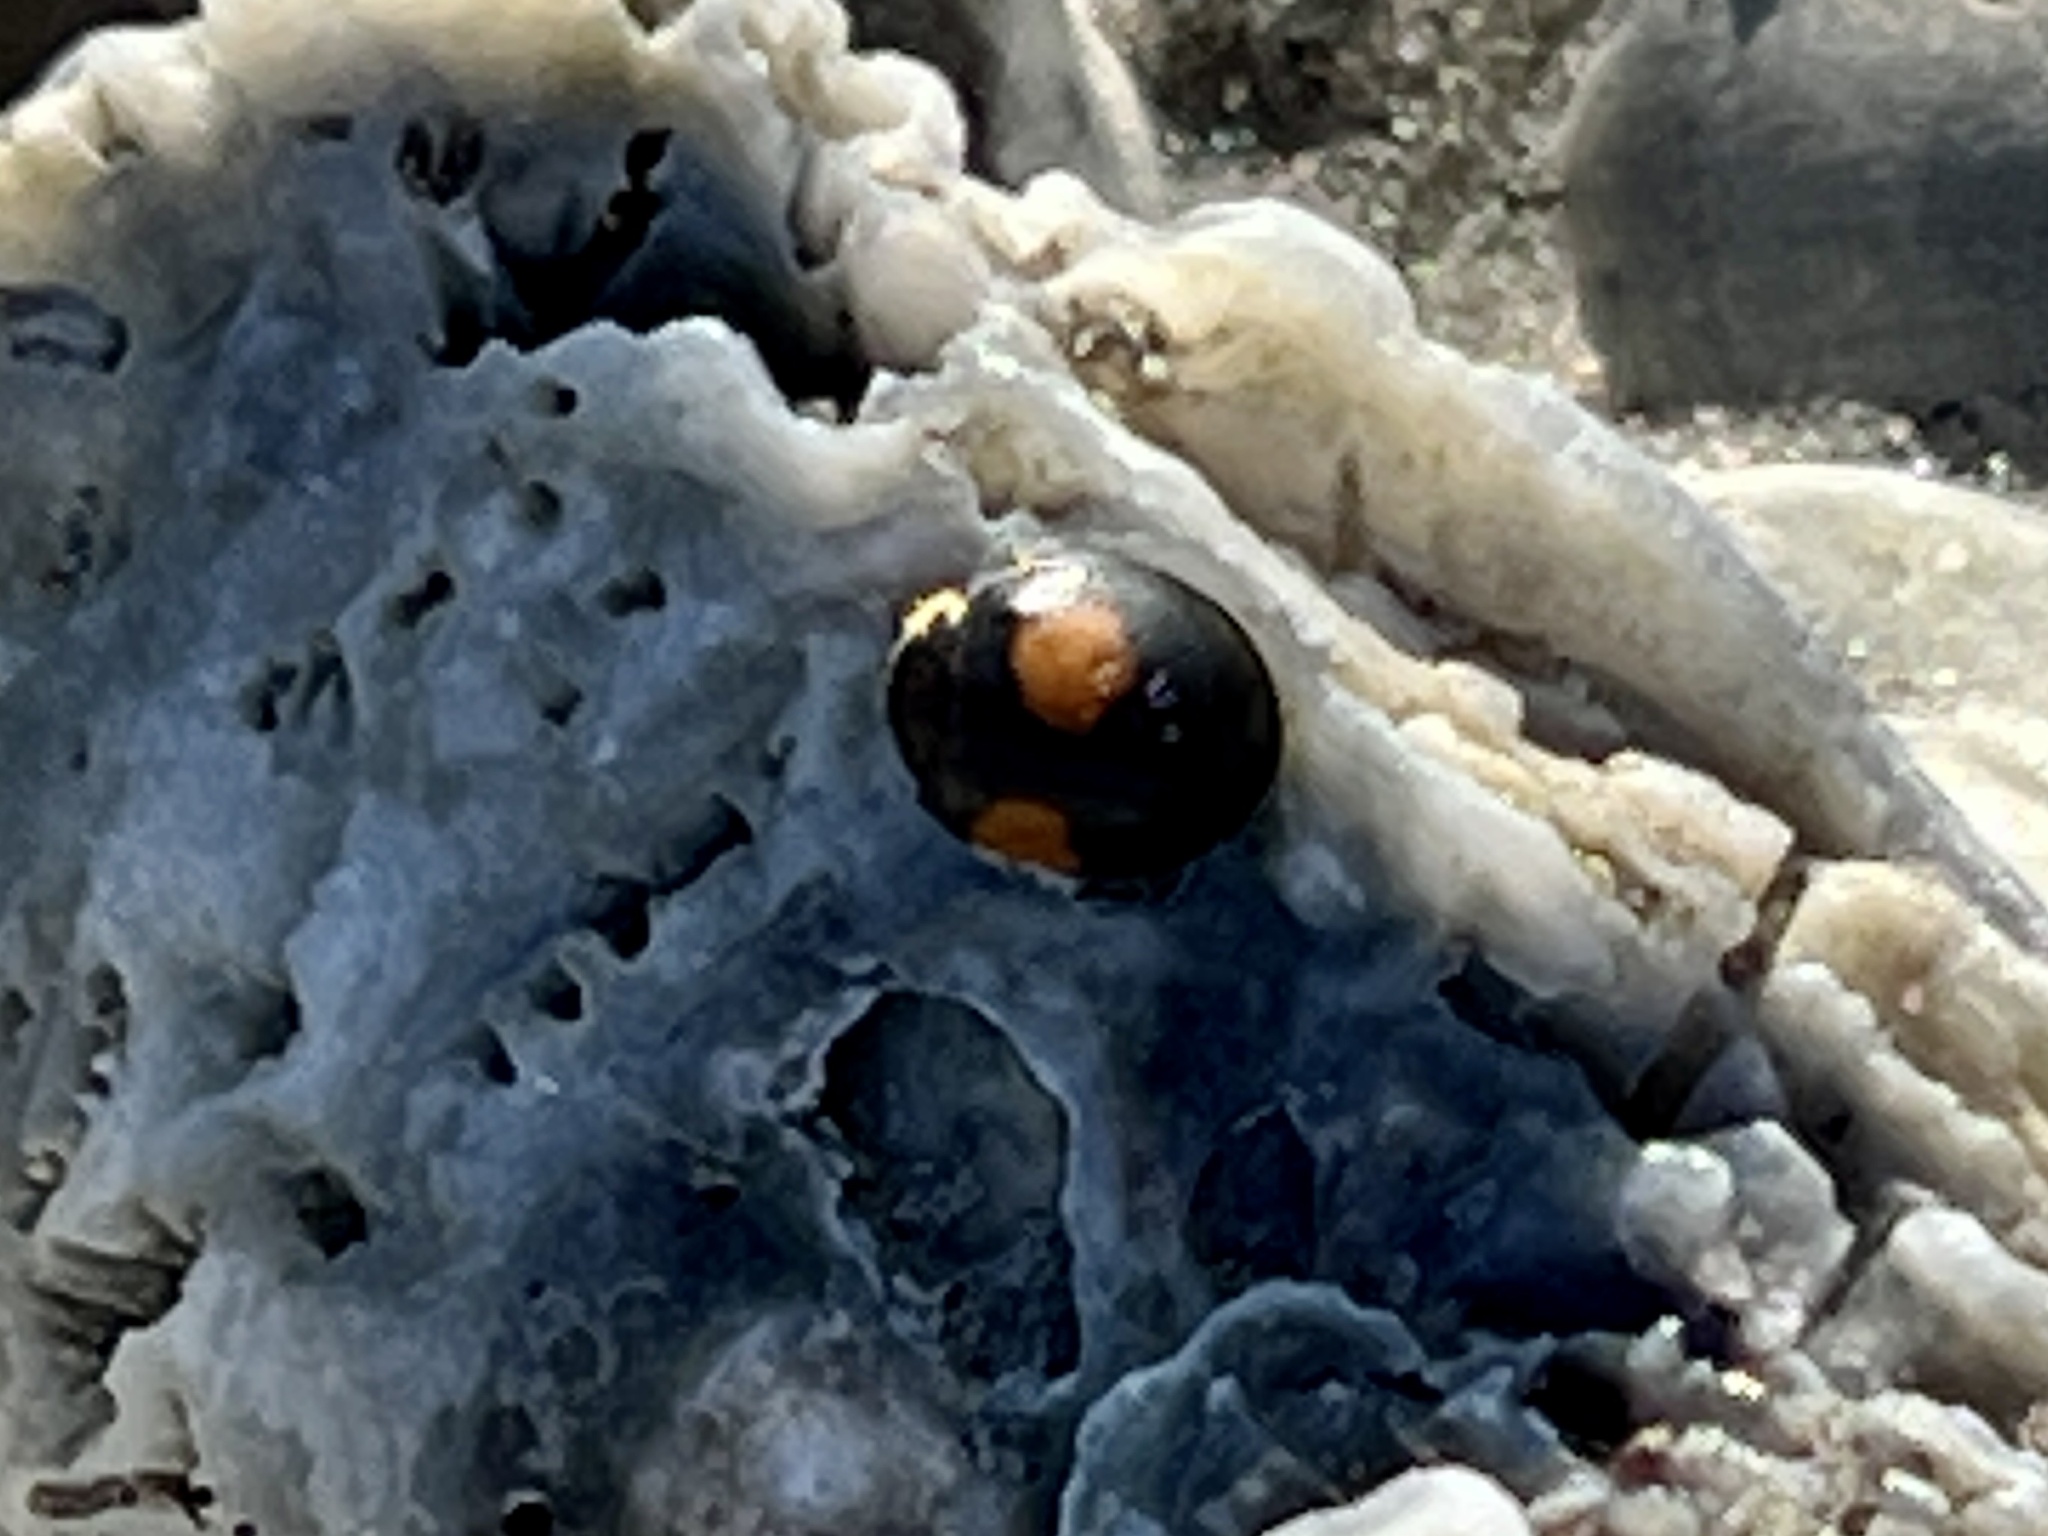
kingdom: Animalia
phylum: Arthropoda
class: Insecta
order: Coleoptera
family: Coccinellidae
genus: Olla
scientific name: Olla v-nigrum
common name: Ashy gray lady beetle
